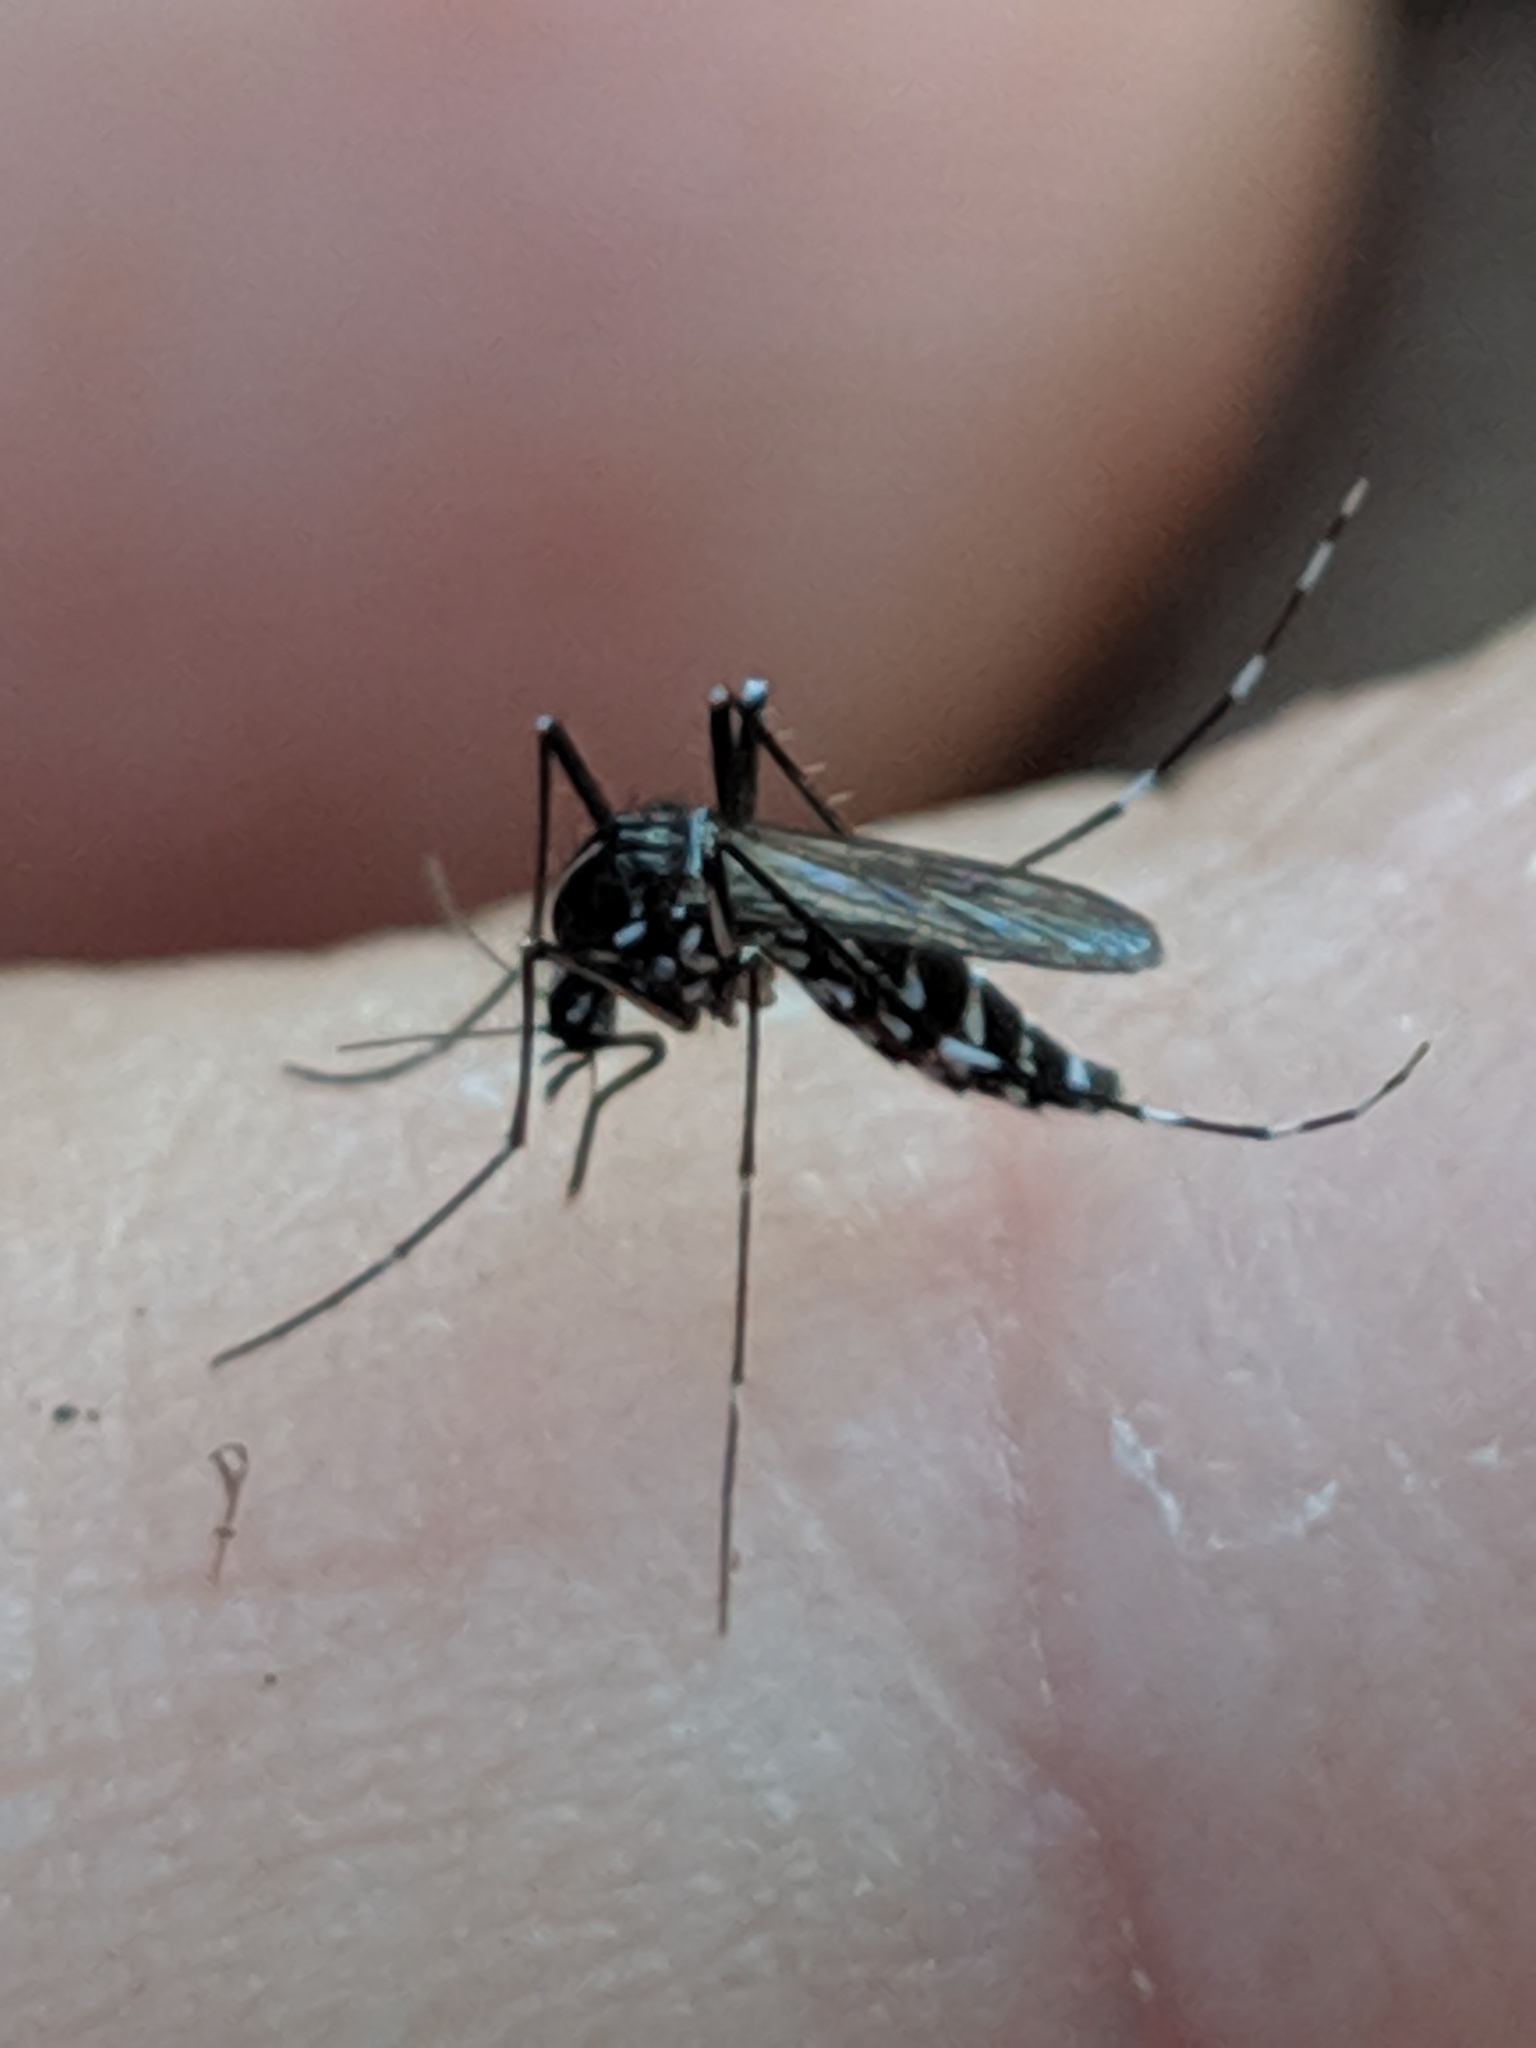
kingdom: Animalia
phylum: Arthropoda
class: Insecta
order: Diptera
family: Culicidae
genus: Aedes
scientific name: Aedes albopictus
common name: Tiger mosquito
